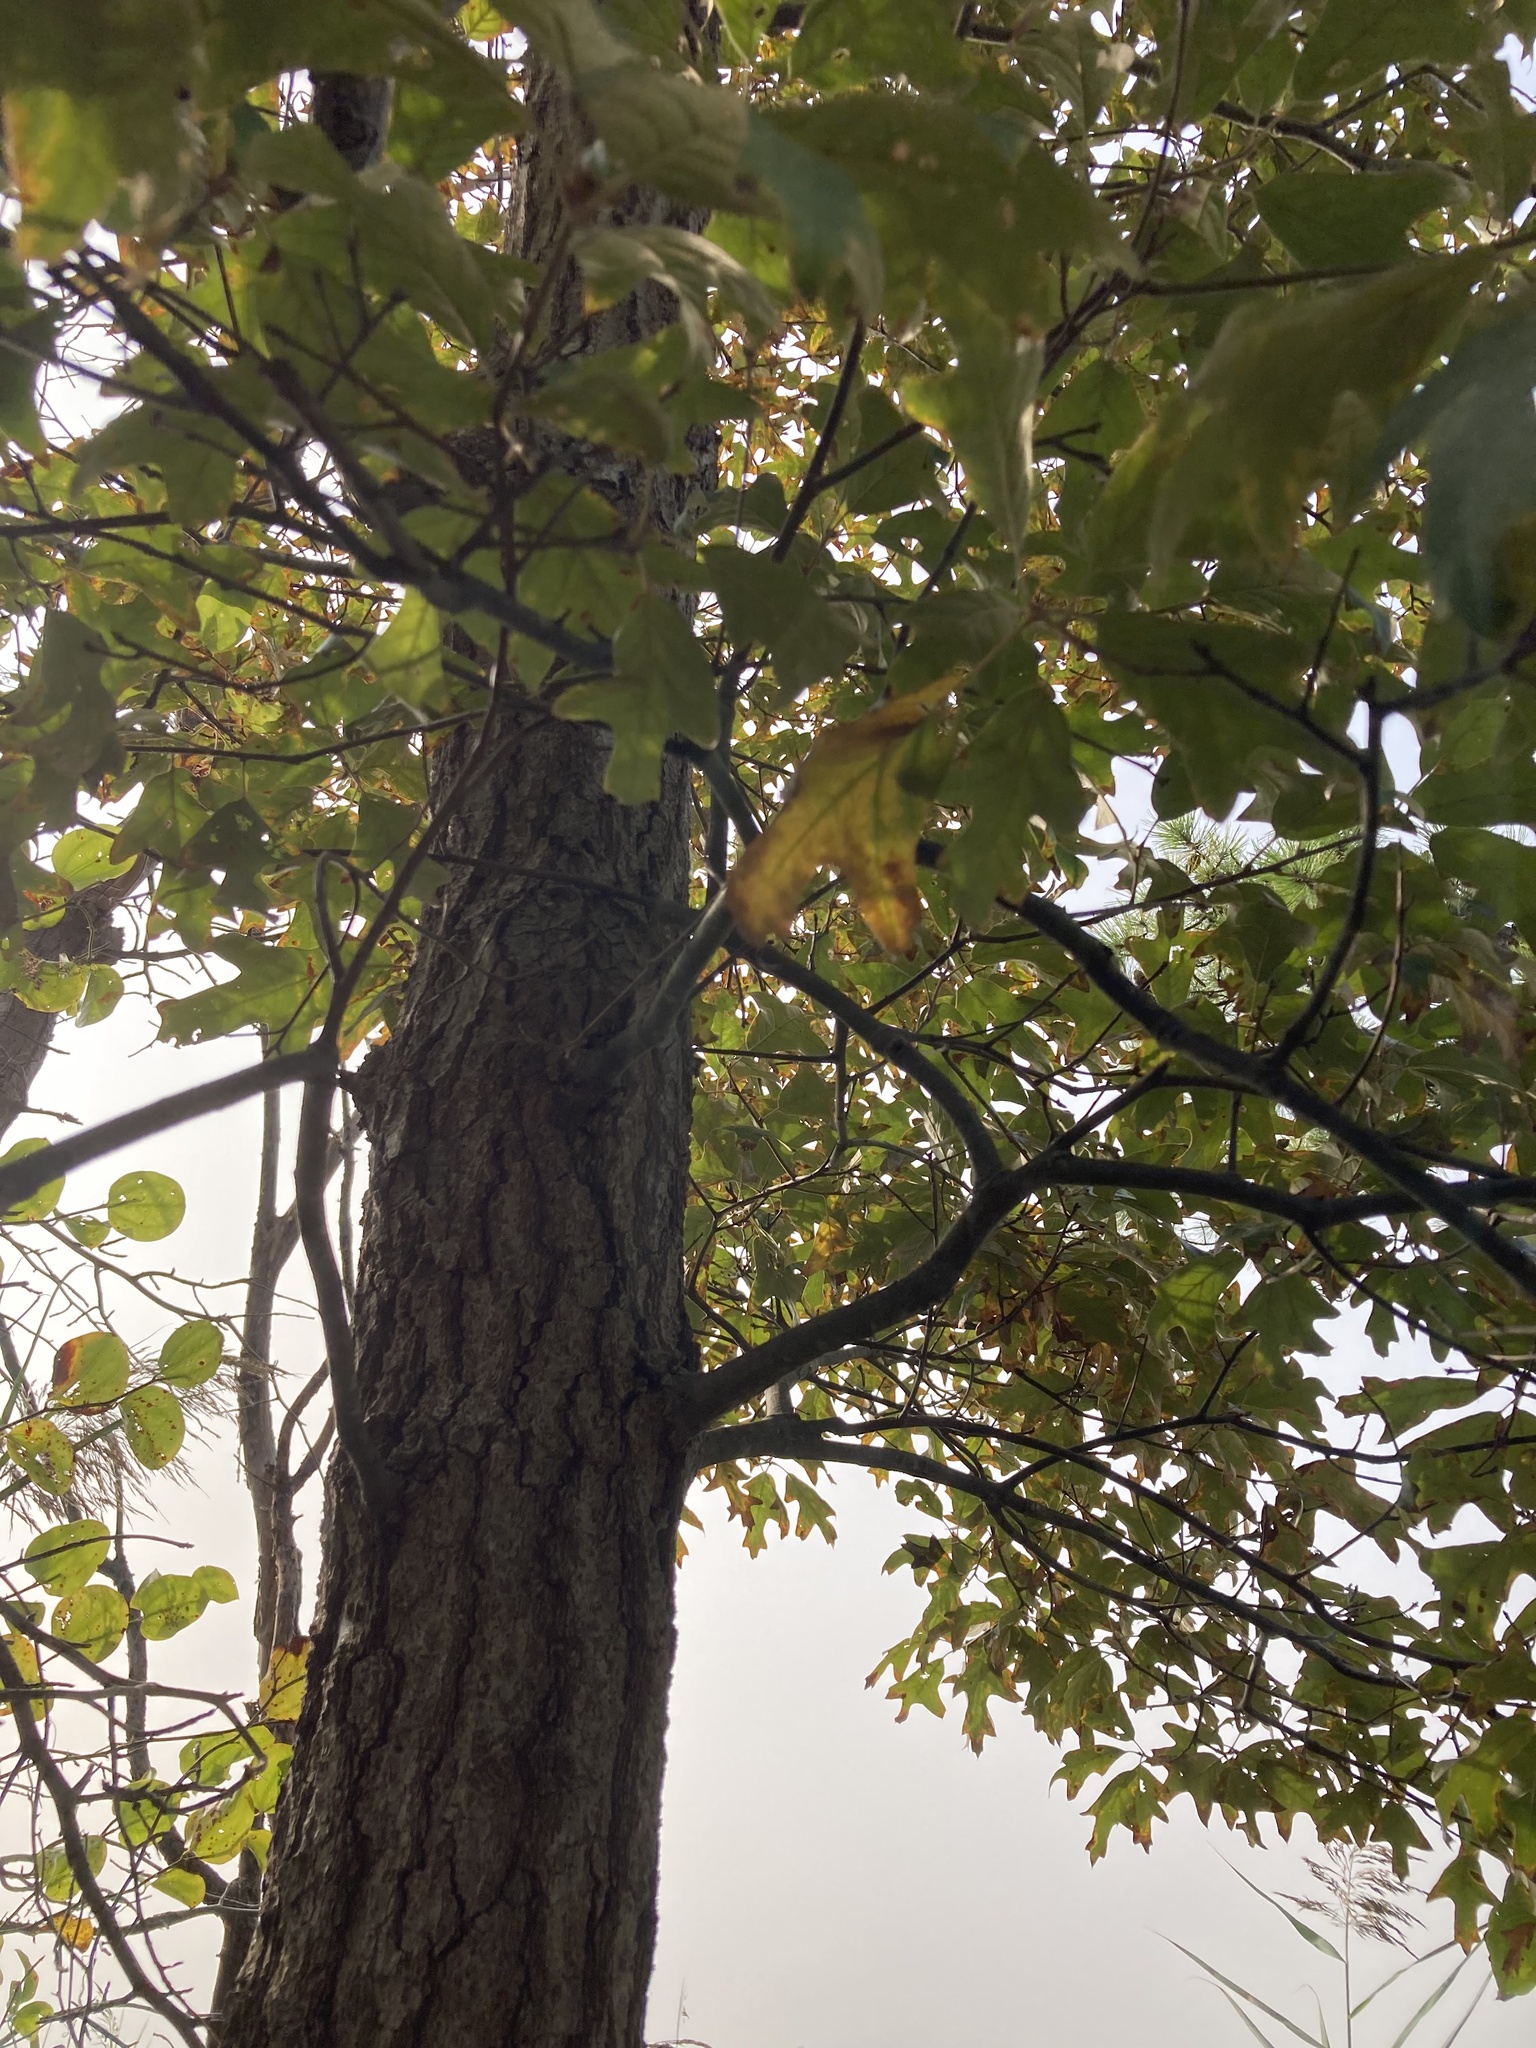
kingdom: Plantae
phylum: Tracheophyta
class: Magnoliopsida
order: Fagales
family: Fagaceae
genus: Quercus
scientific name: Quercus falcata
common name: Southern red oak
